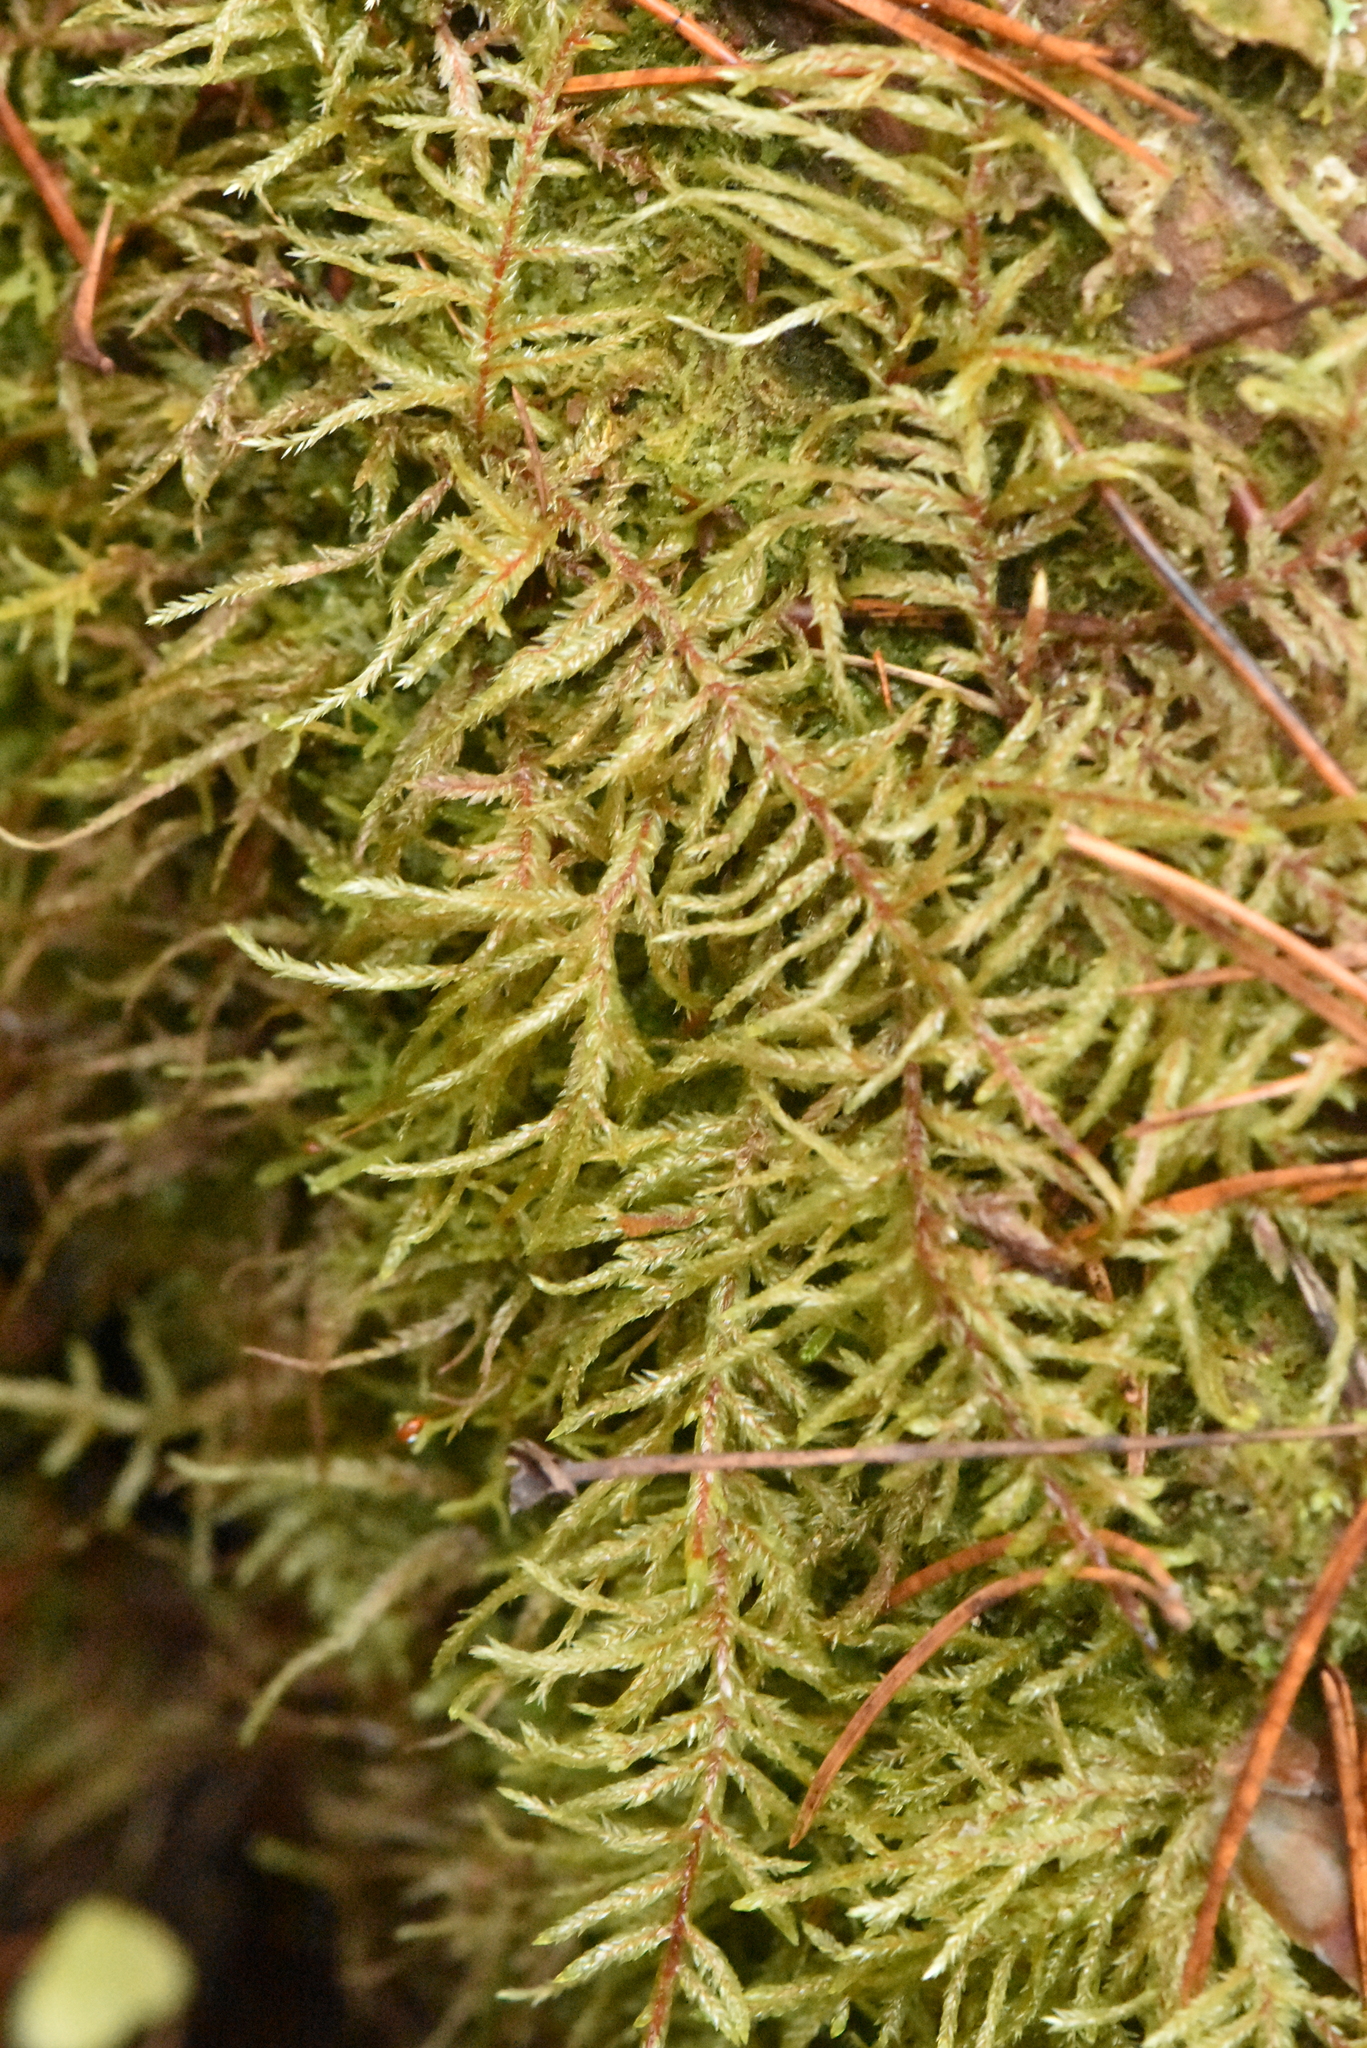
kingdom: Plantae
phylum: Bryophyta
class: Bryopsida
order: Hypnales
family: Hylocomiaceae
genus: Pleurozium
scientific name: Pleurozium schreberi
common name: Red-stemmed feather moss
